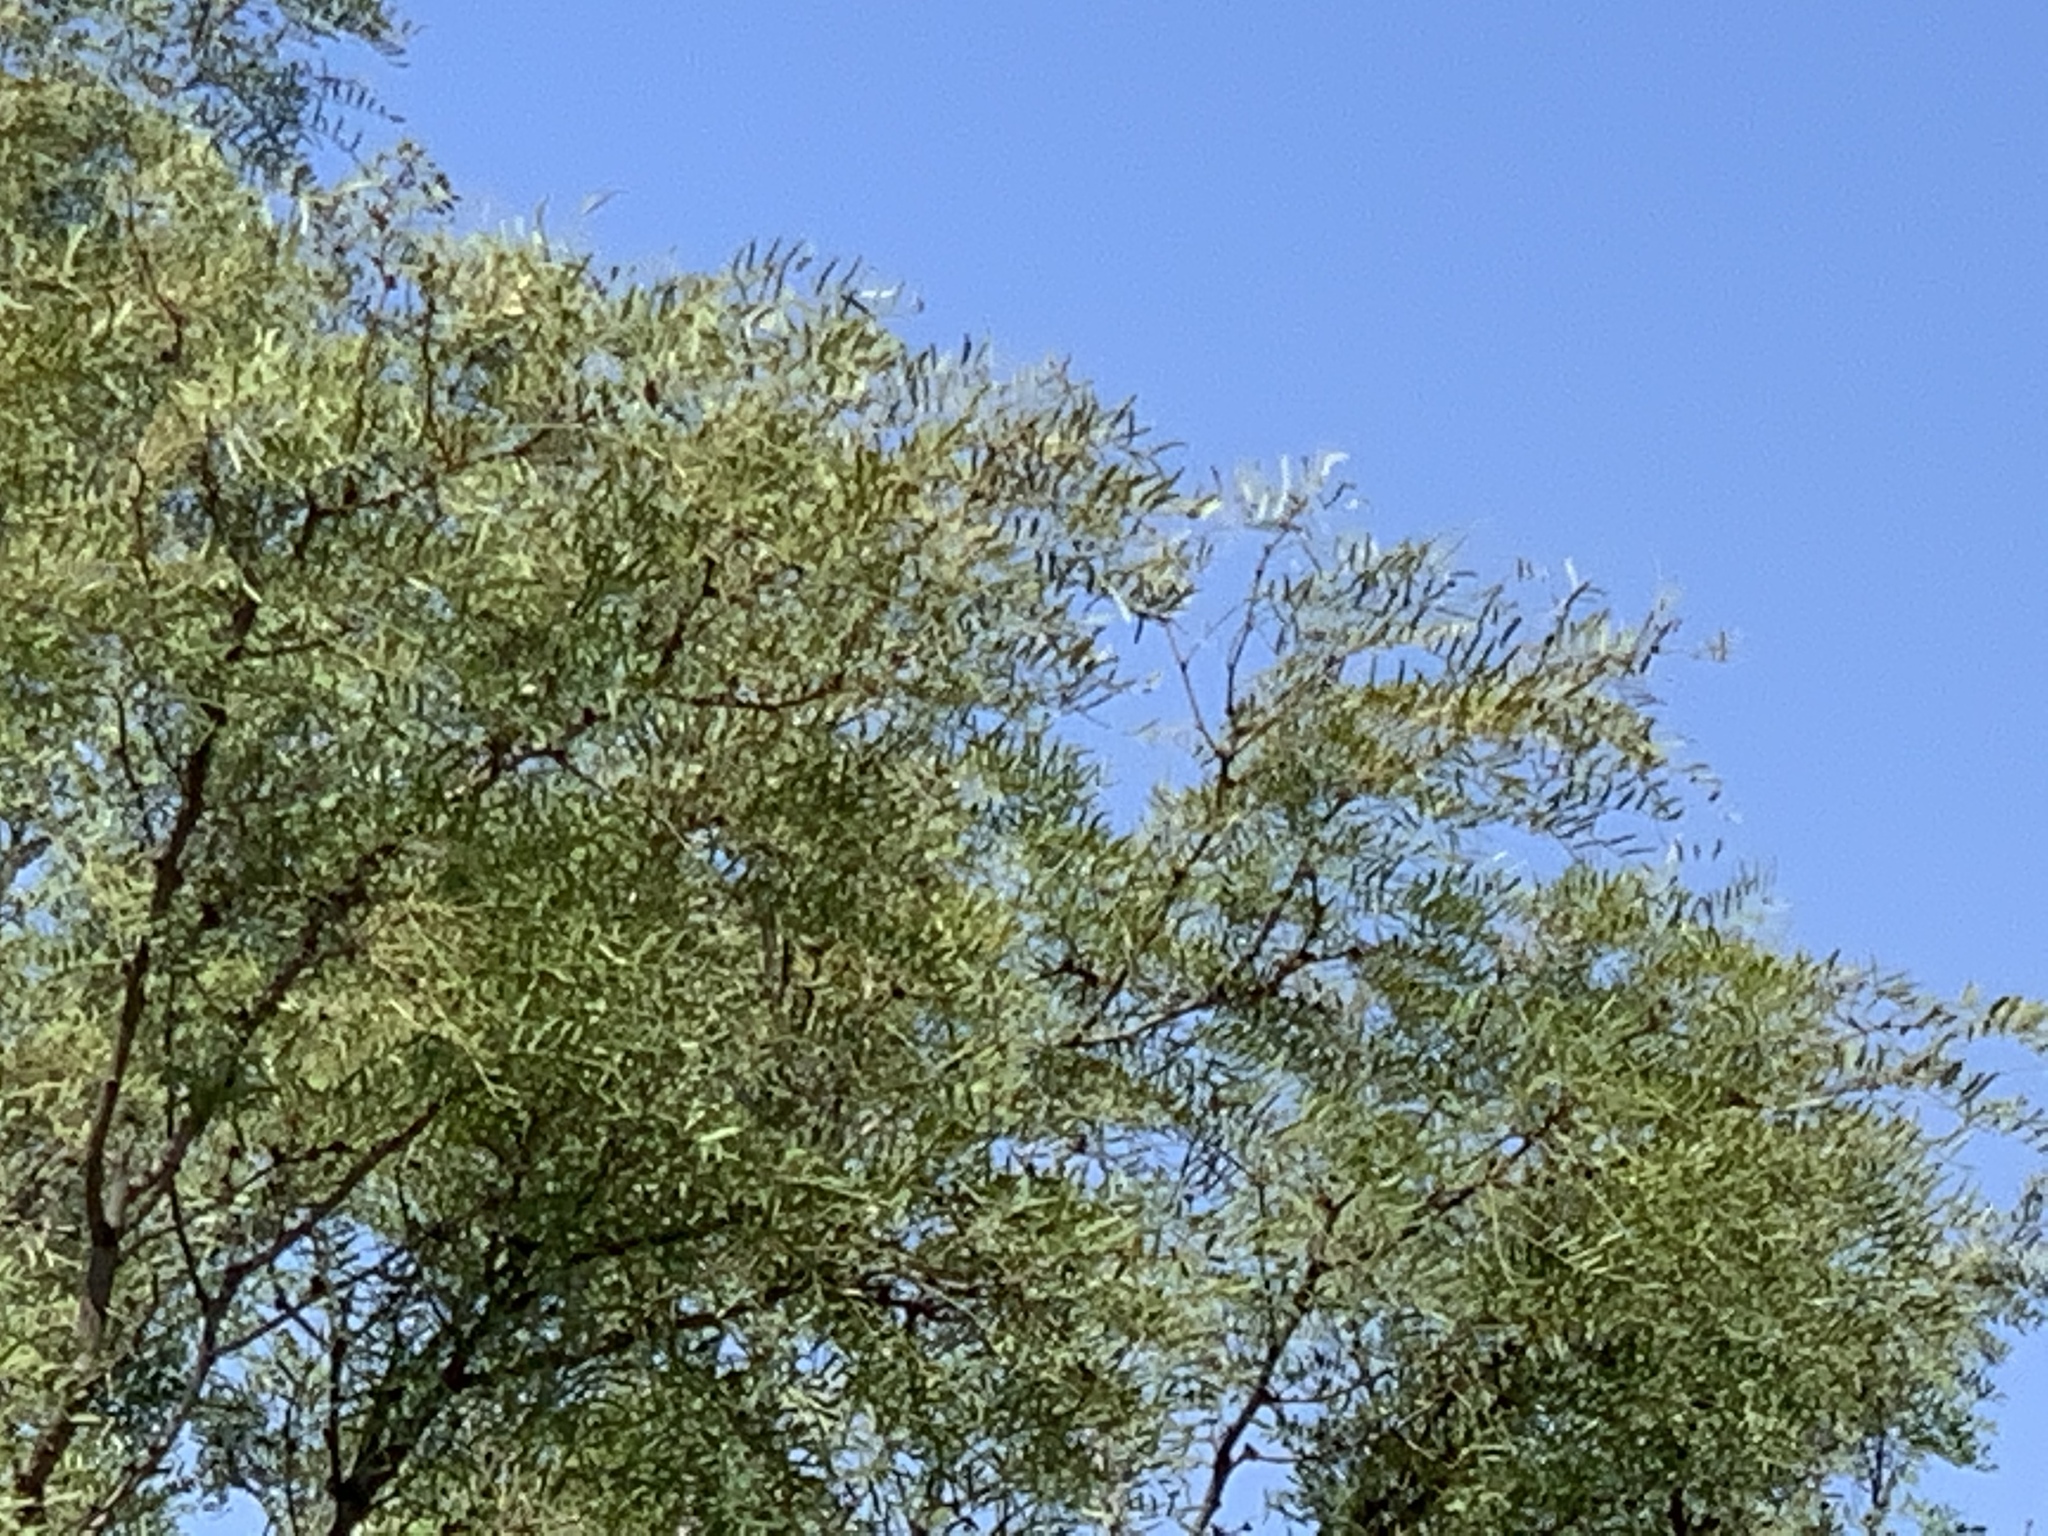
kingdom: Plantae
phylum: Tracheophyta
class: Magnoliopsida
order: Fabales
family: Fabaceae
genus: Prosopis
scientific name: Prosopis glandulosa
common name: Honey mesquite
